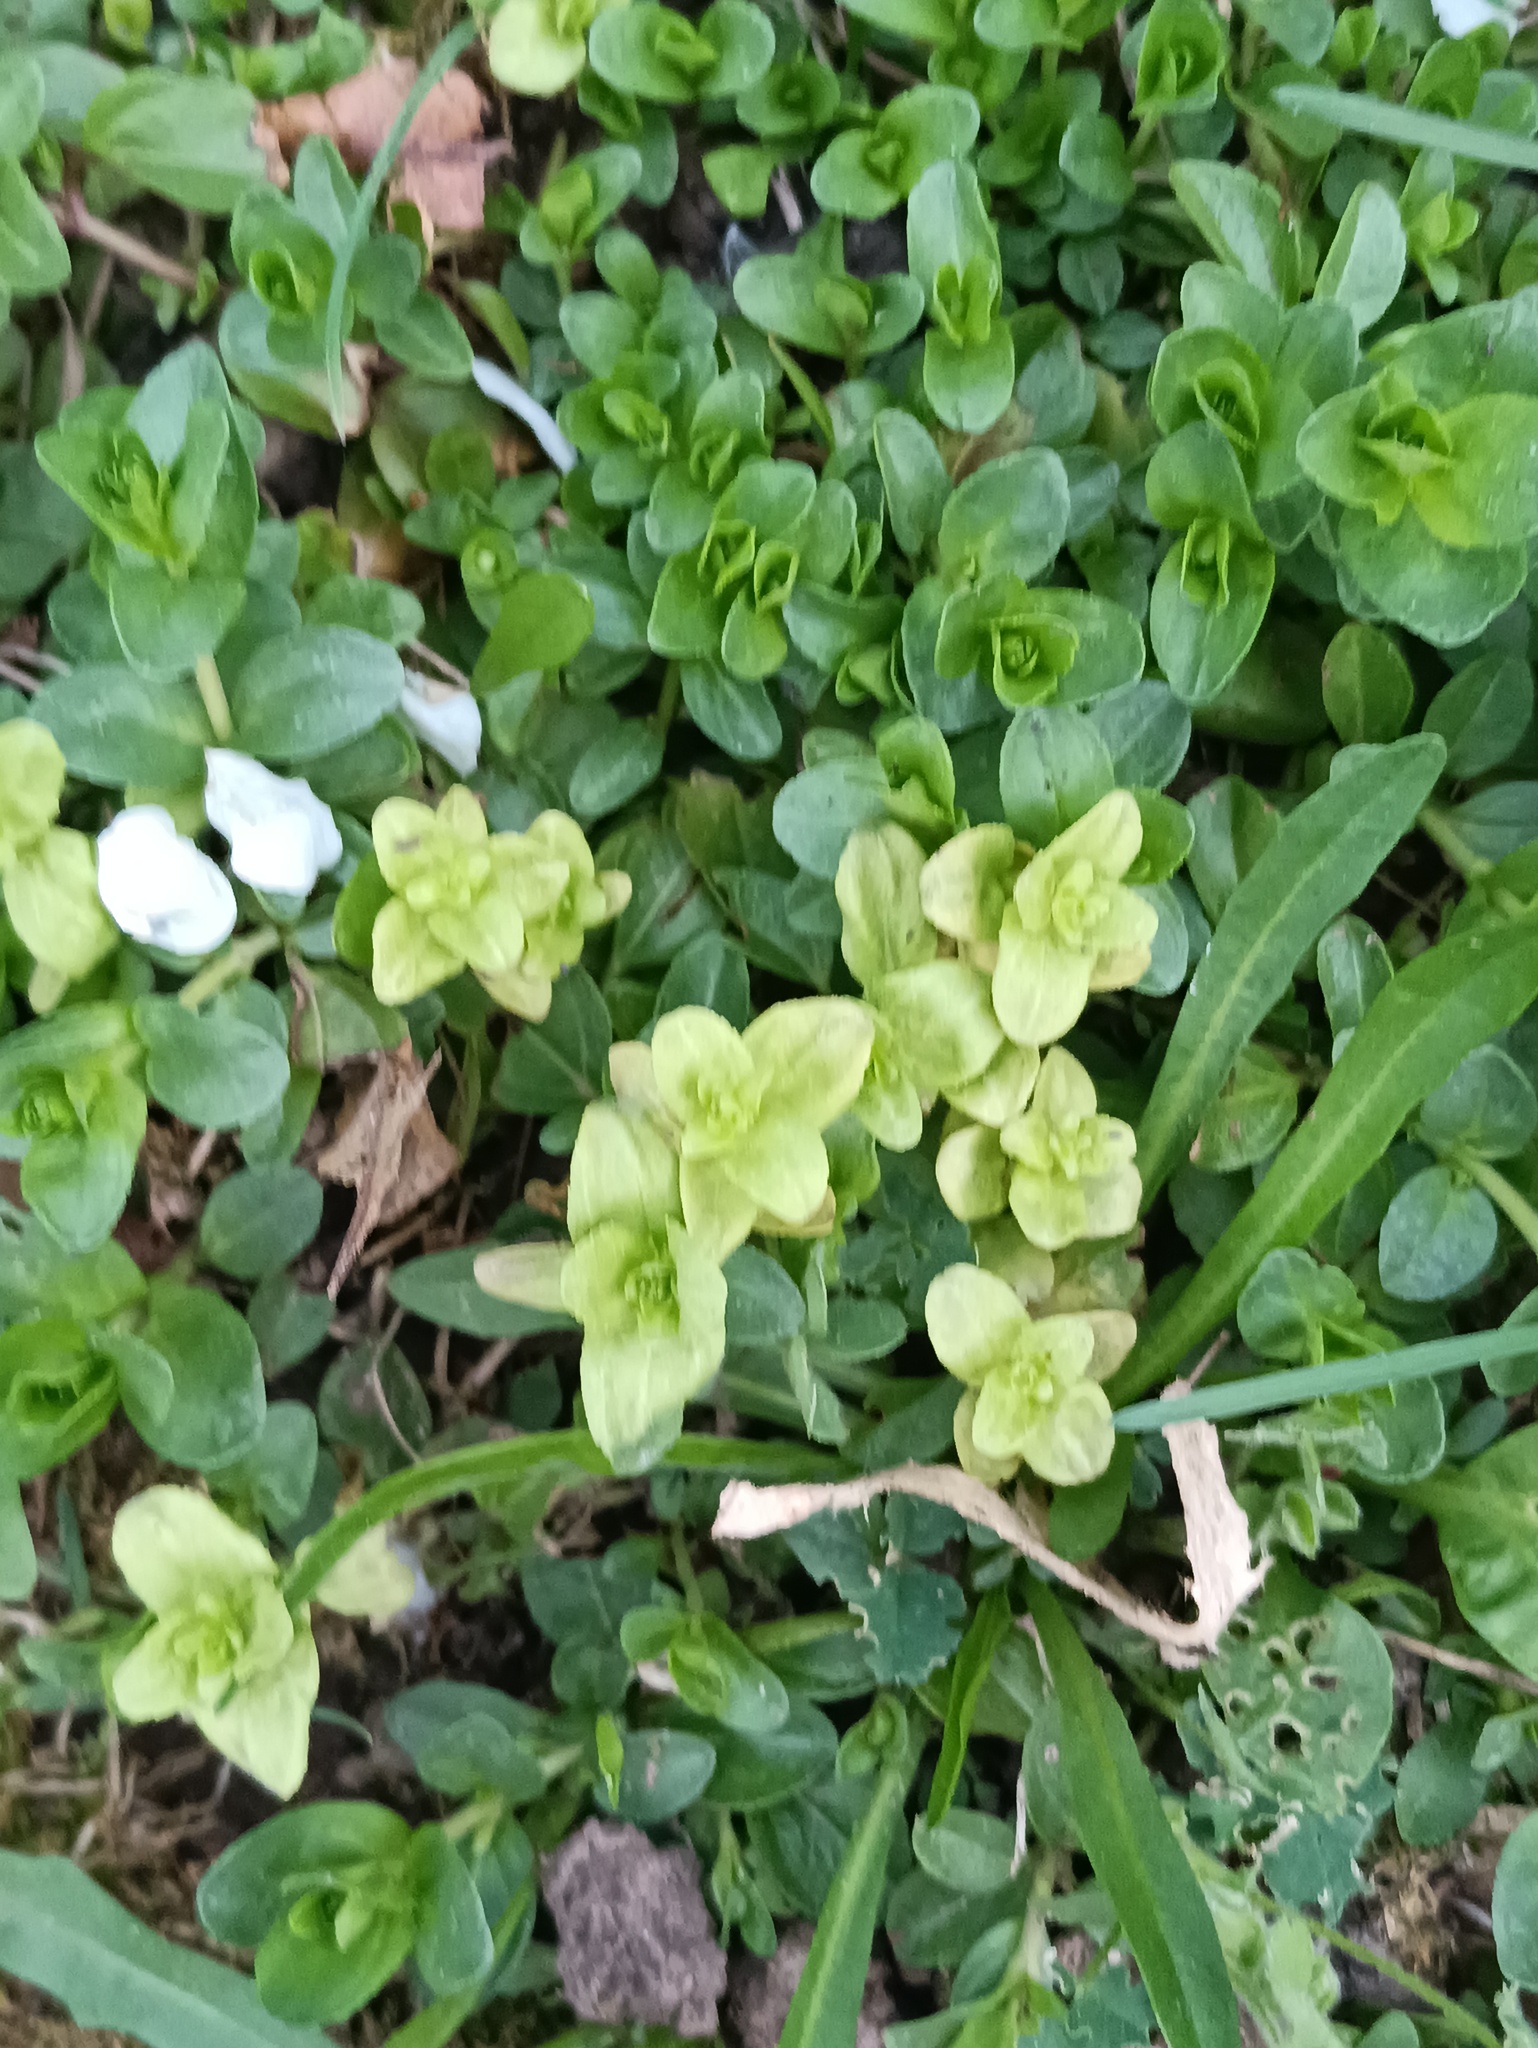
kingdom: Plantae
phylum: Tracheophyta
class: Magnoliopsida
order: Lamiales
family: Plantaginaceae
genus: Veronica
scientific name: Veronica serpyllifolia
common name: Thyme-leaved speedwell
